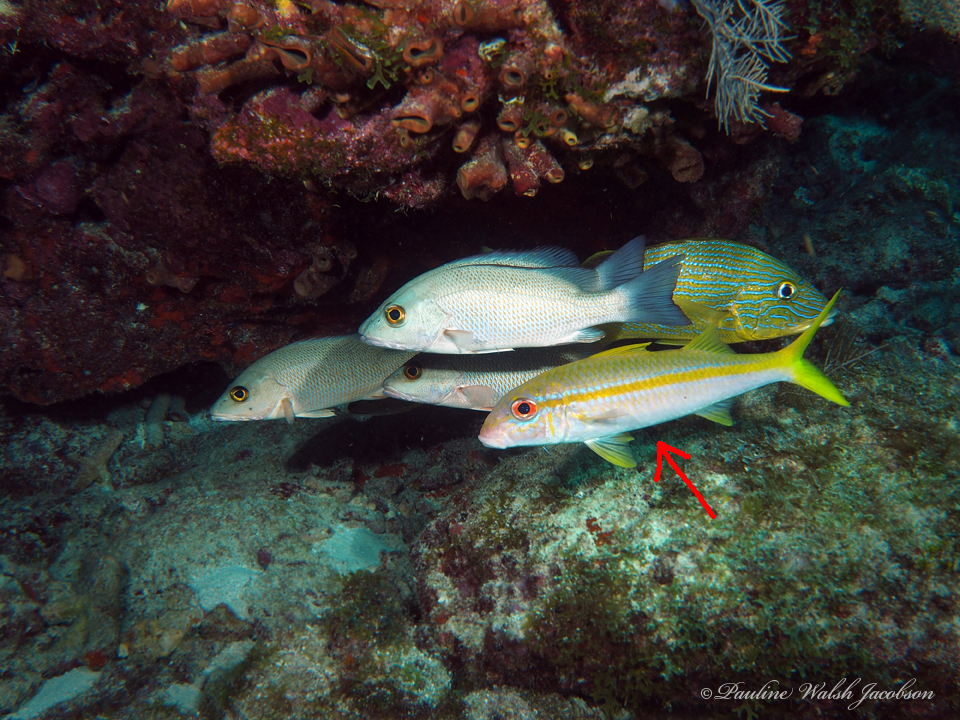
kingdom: Animalia
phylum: Chordata
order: Perciformes
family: Mullidae
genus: Mulloidichthys
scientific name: Mulloidichthys martinicus
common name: Yellow goatfish
